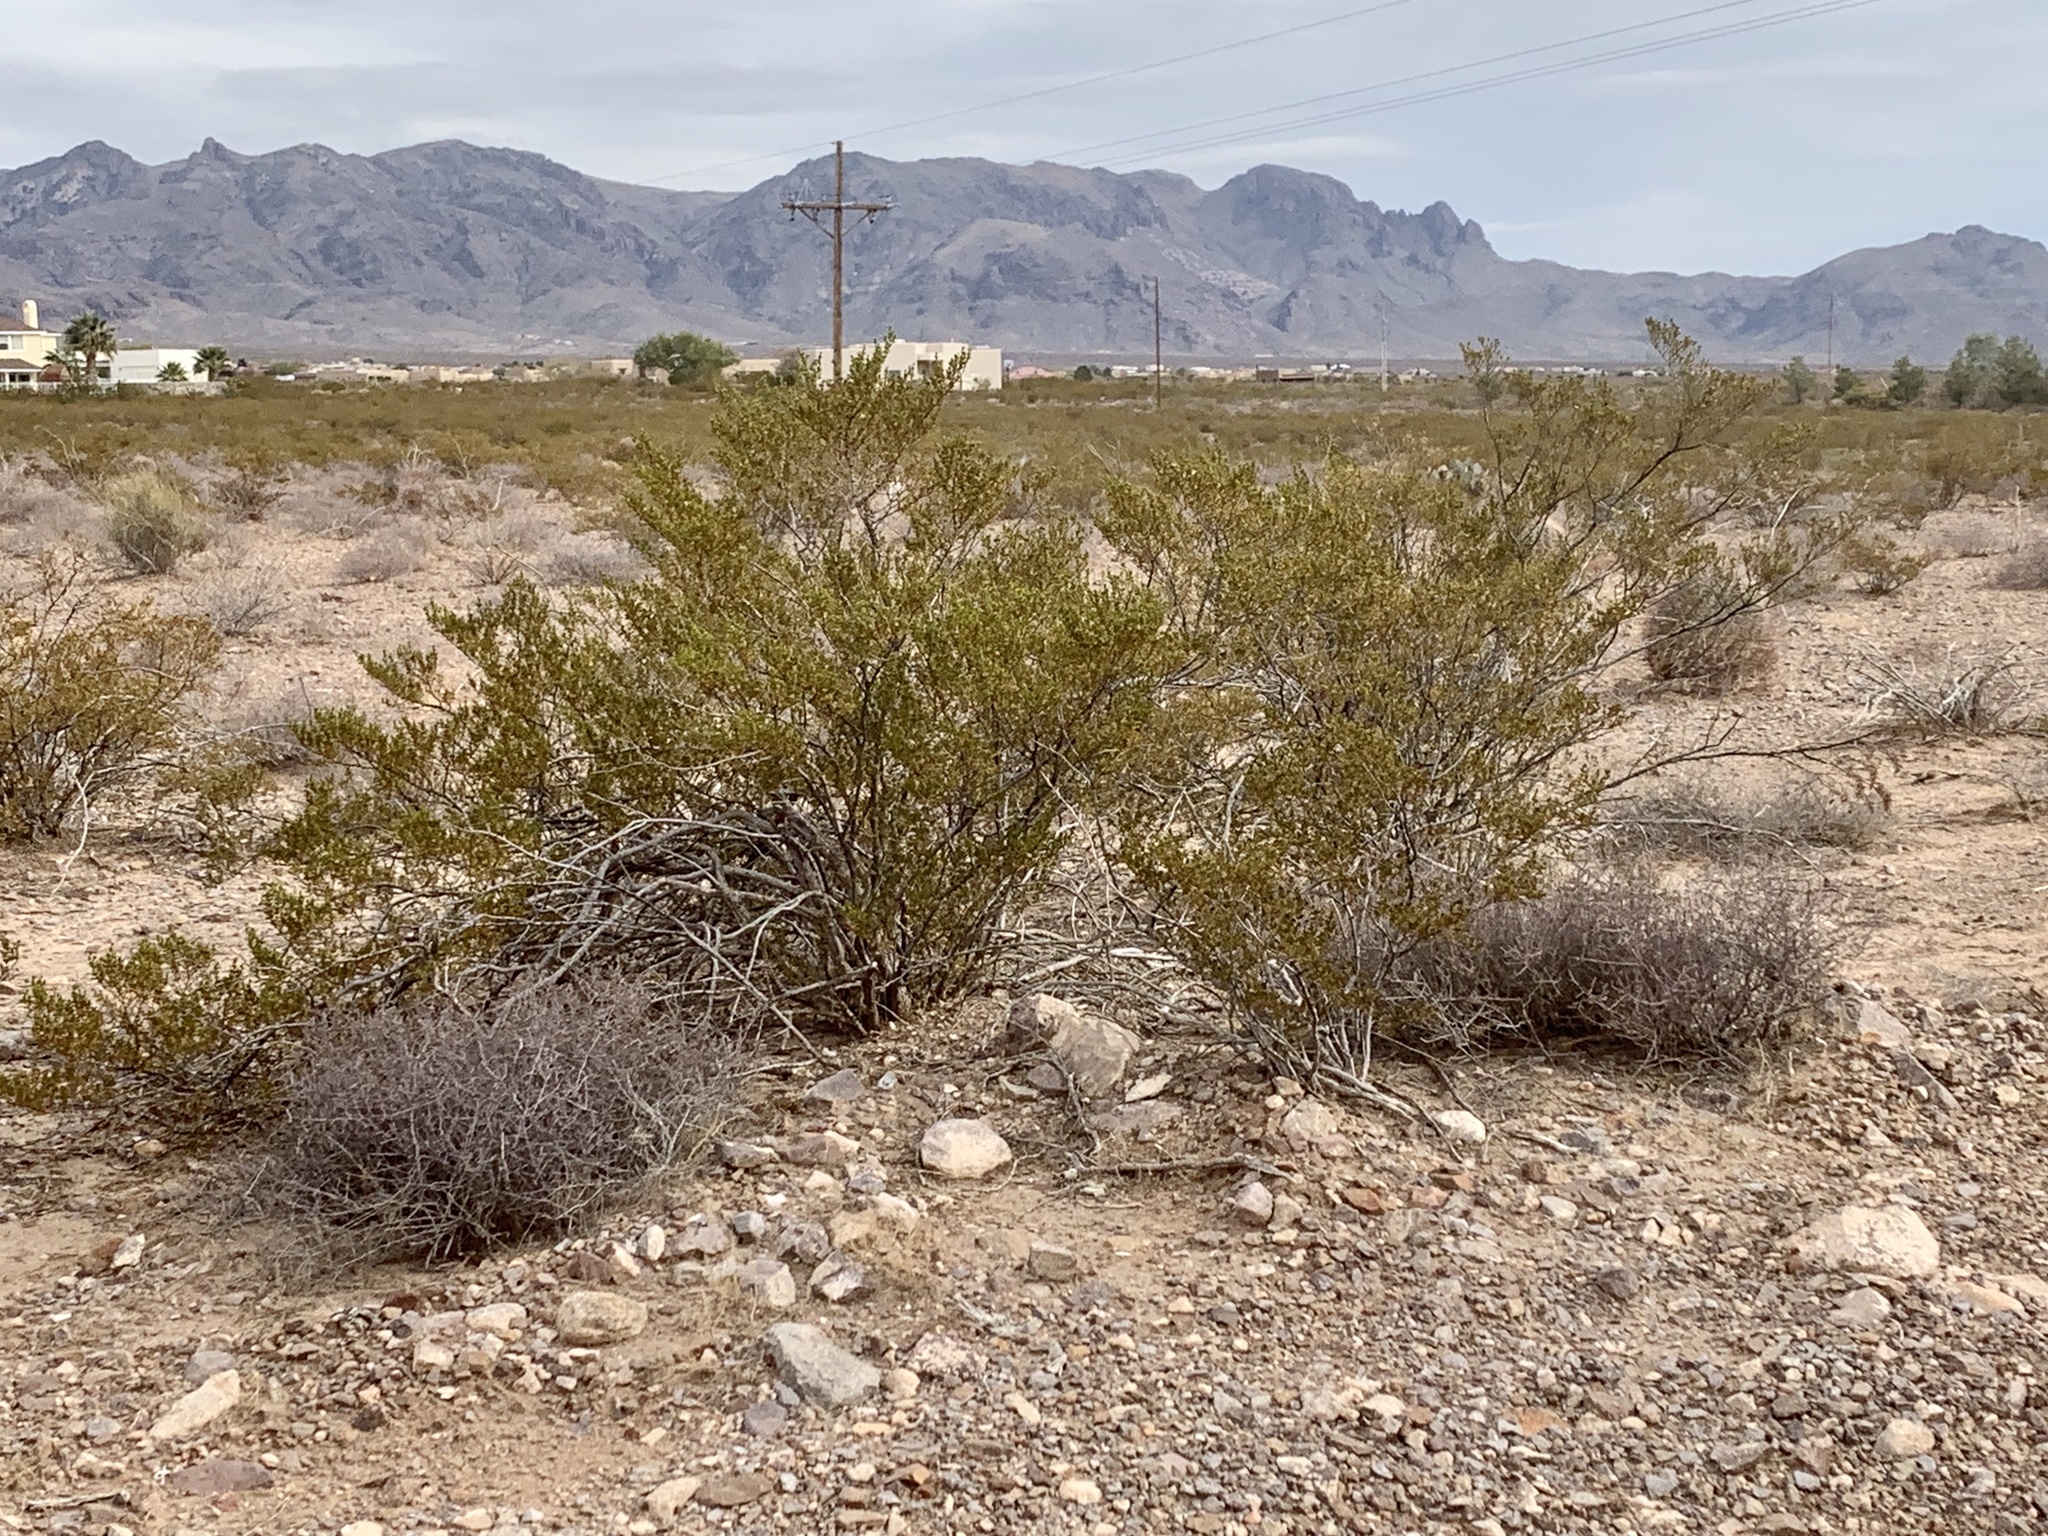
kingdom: Plantae
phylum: Tracheophyta
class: Magnoliopsida
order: Zygophyllales
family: Zygophyllaceae
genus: Larrea
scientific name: Larrea tridentata
